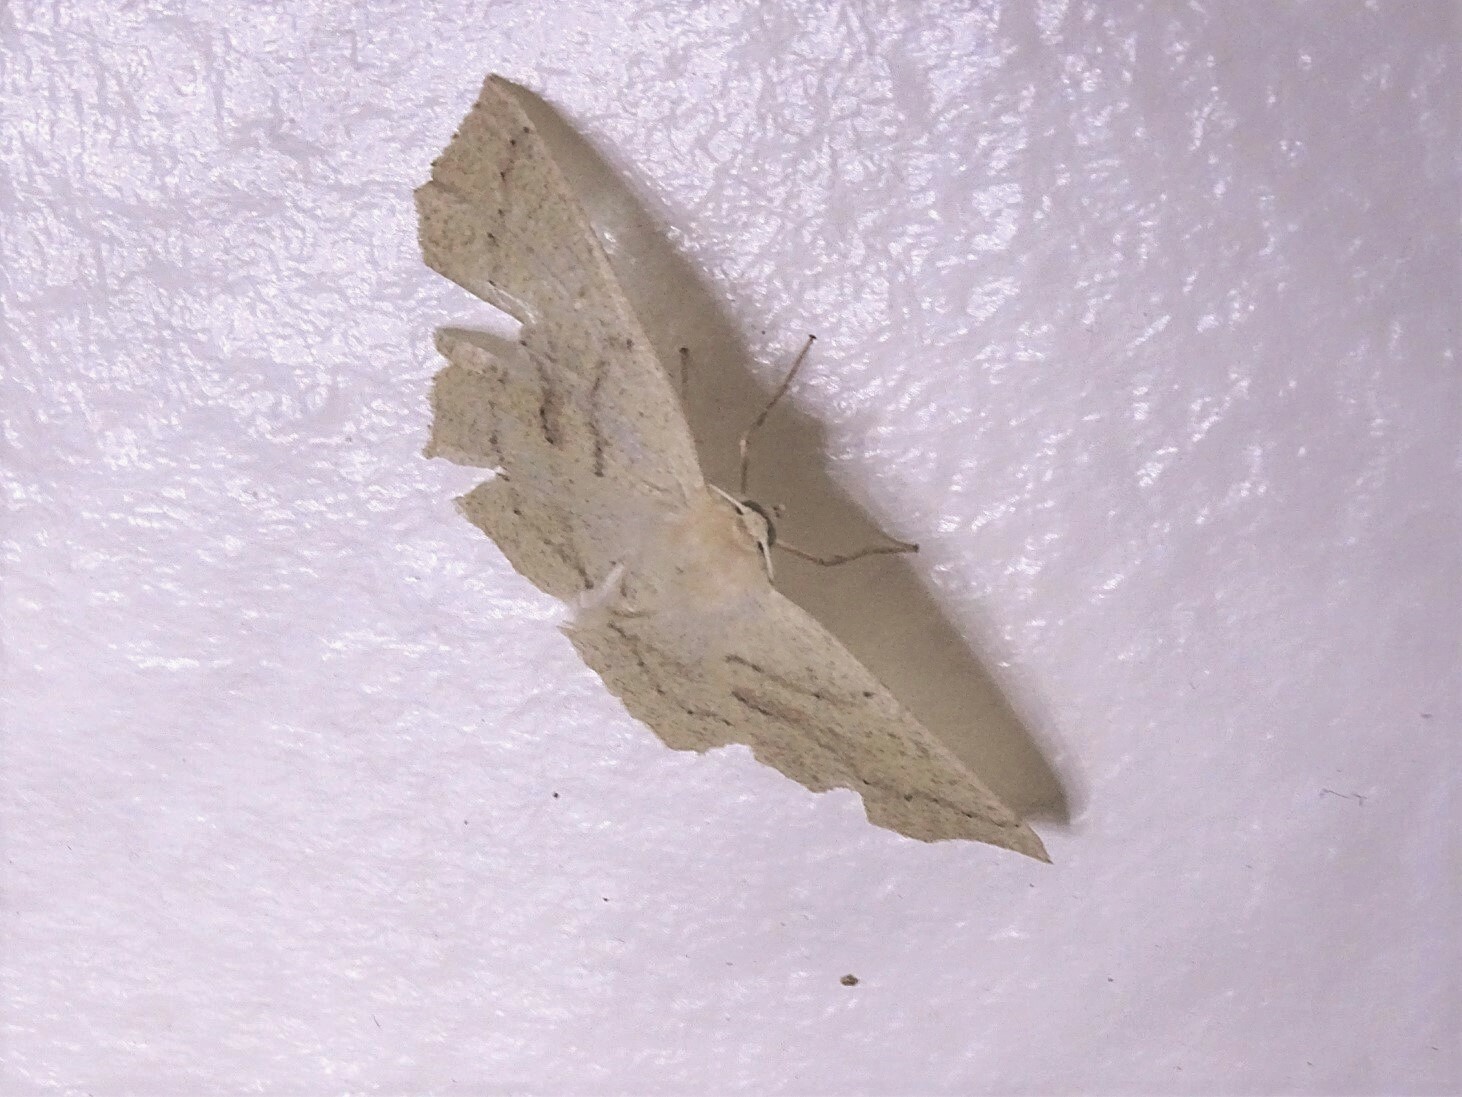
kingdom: Animalia
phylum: Arthropoda
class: Insecta
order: Lepidoptera
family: Geometridae
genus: Sabulodes
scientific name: Sabulodes aegrotata
